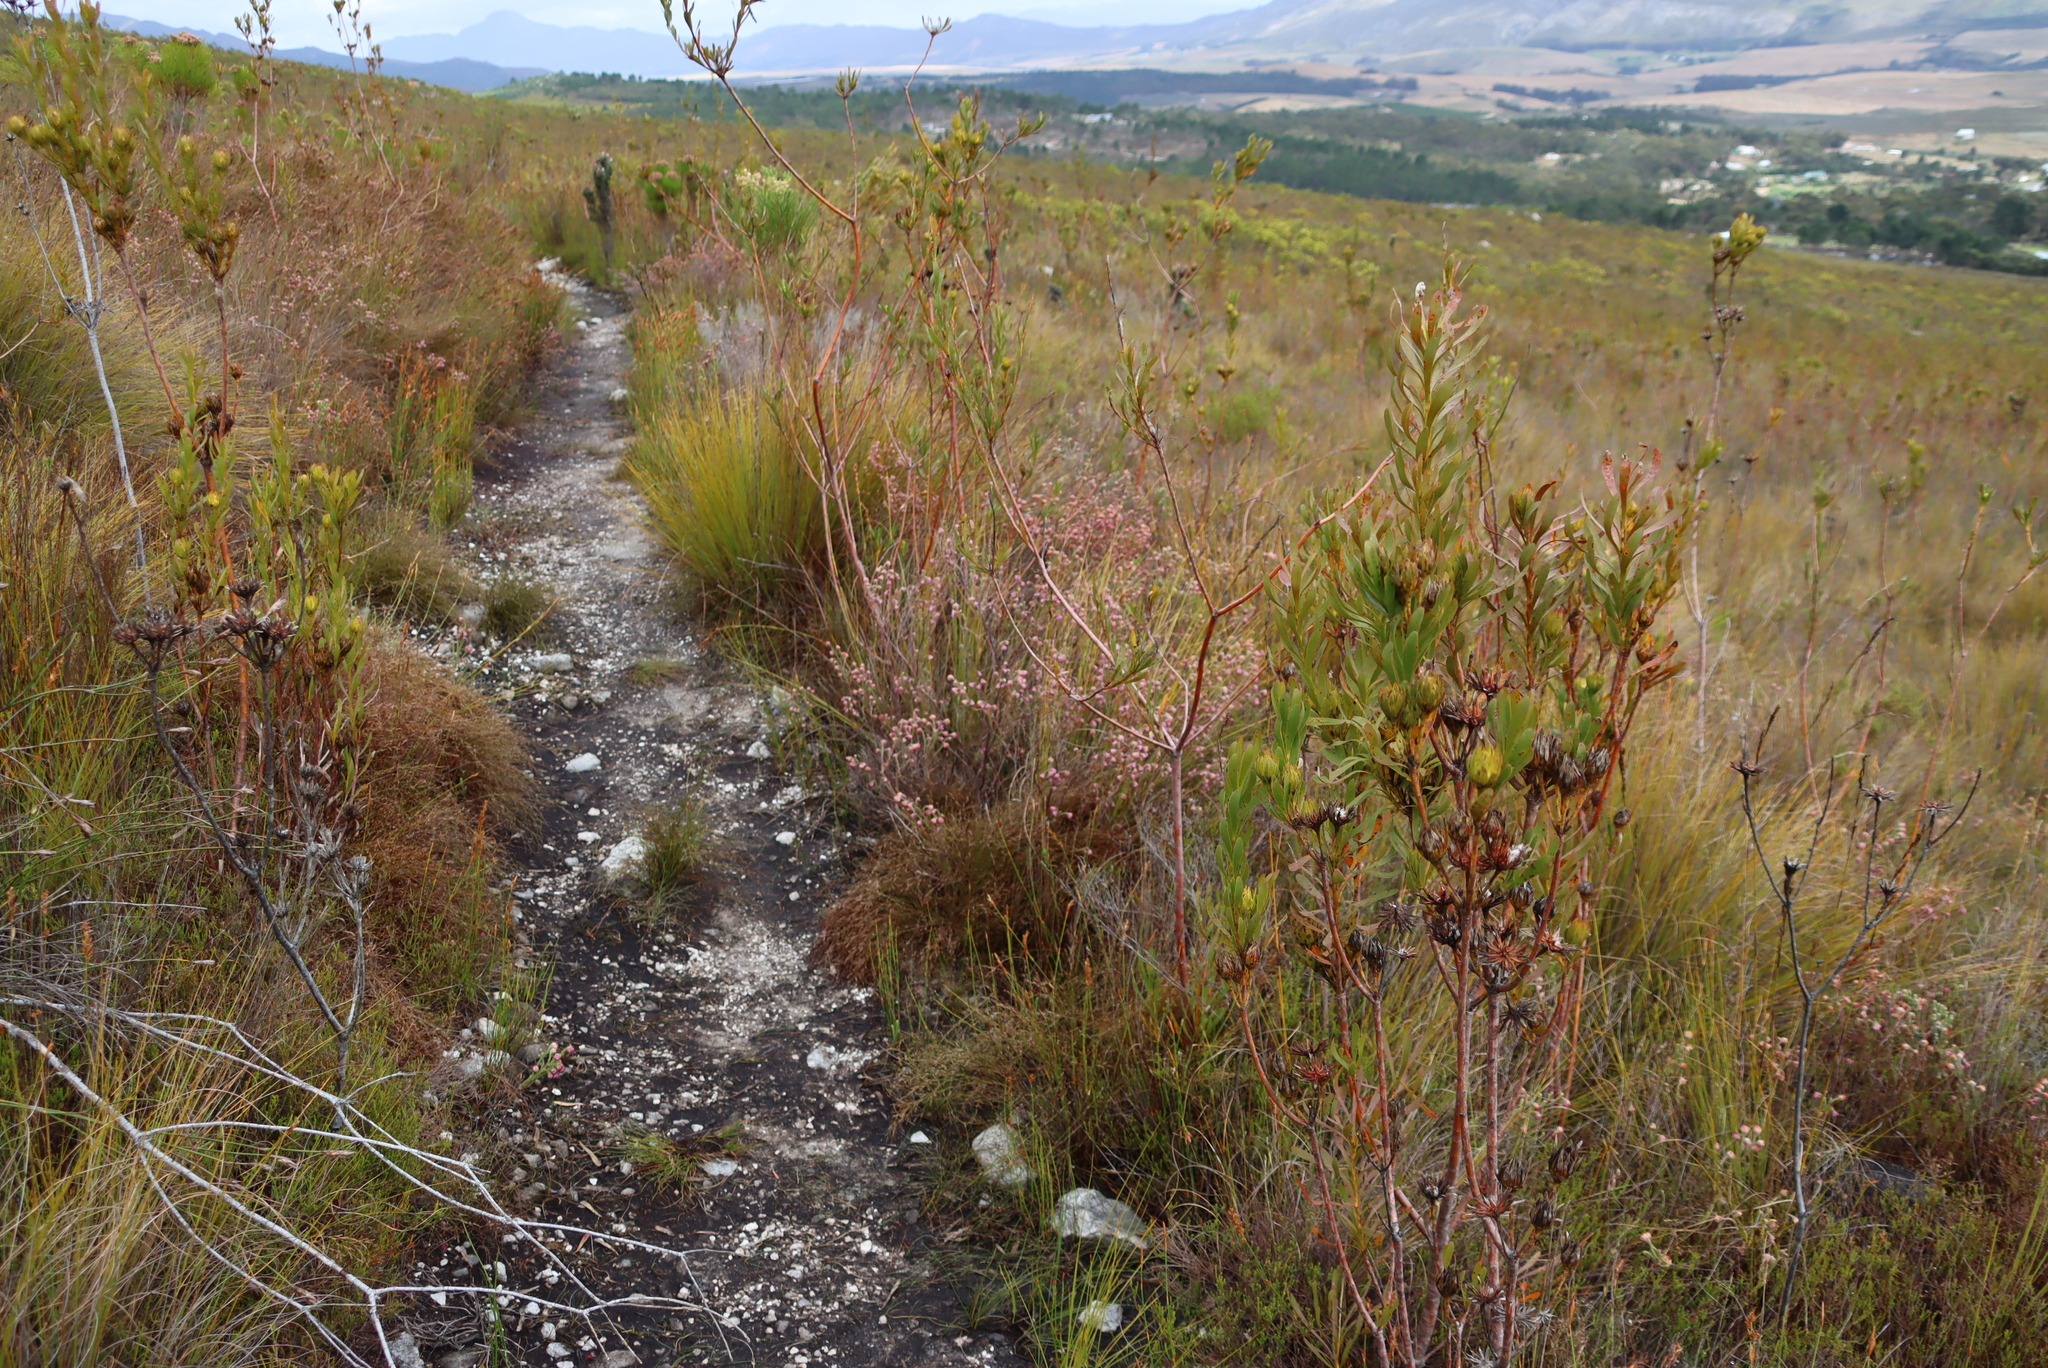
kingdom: Plantae
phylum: Tracheophyta
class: Magnoliopsida
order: Ericales
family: Ericaceae
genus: Erica
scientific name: Erica barbigeroides
